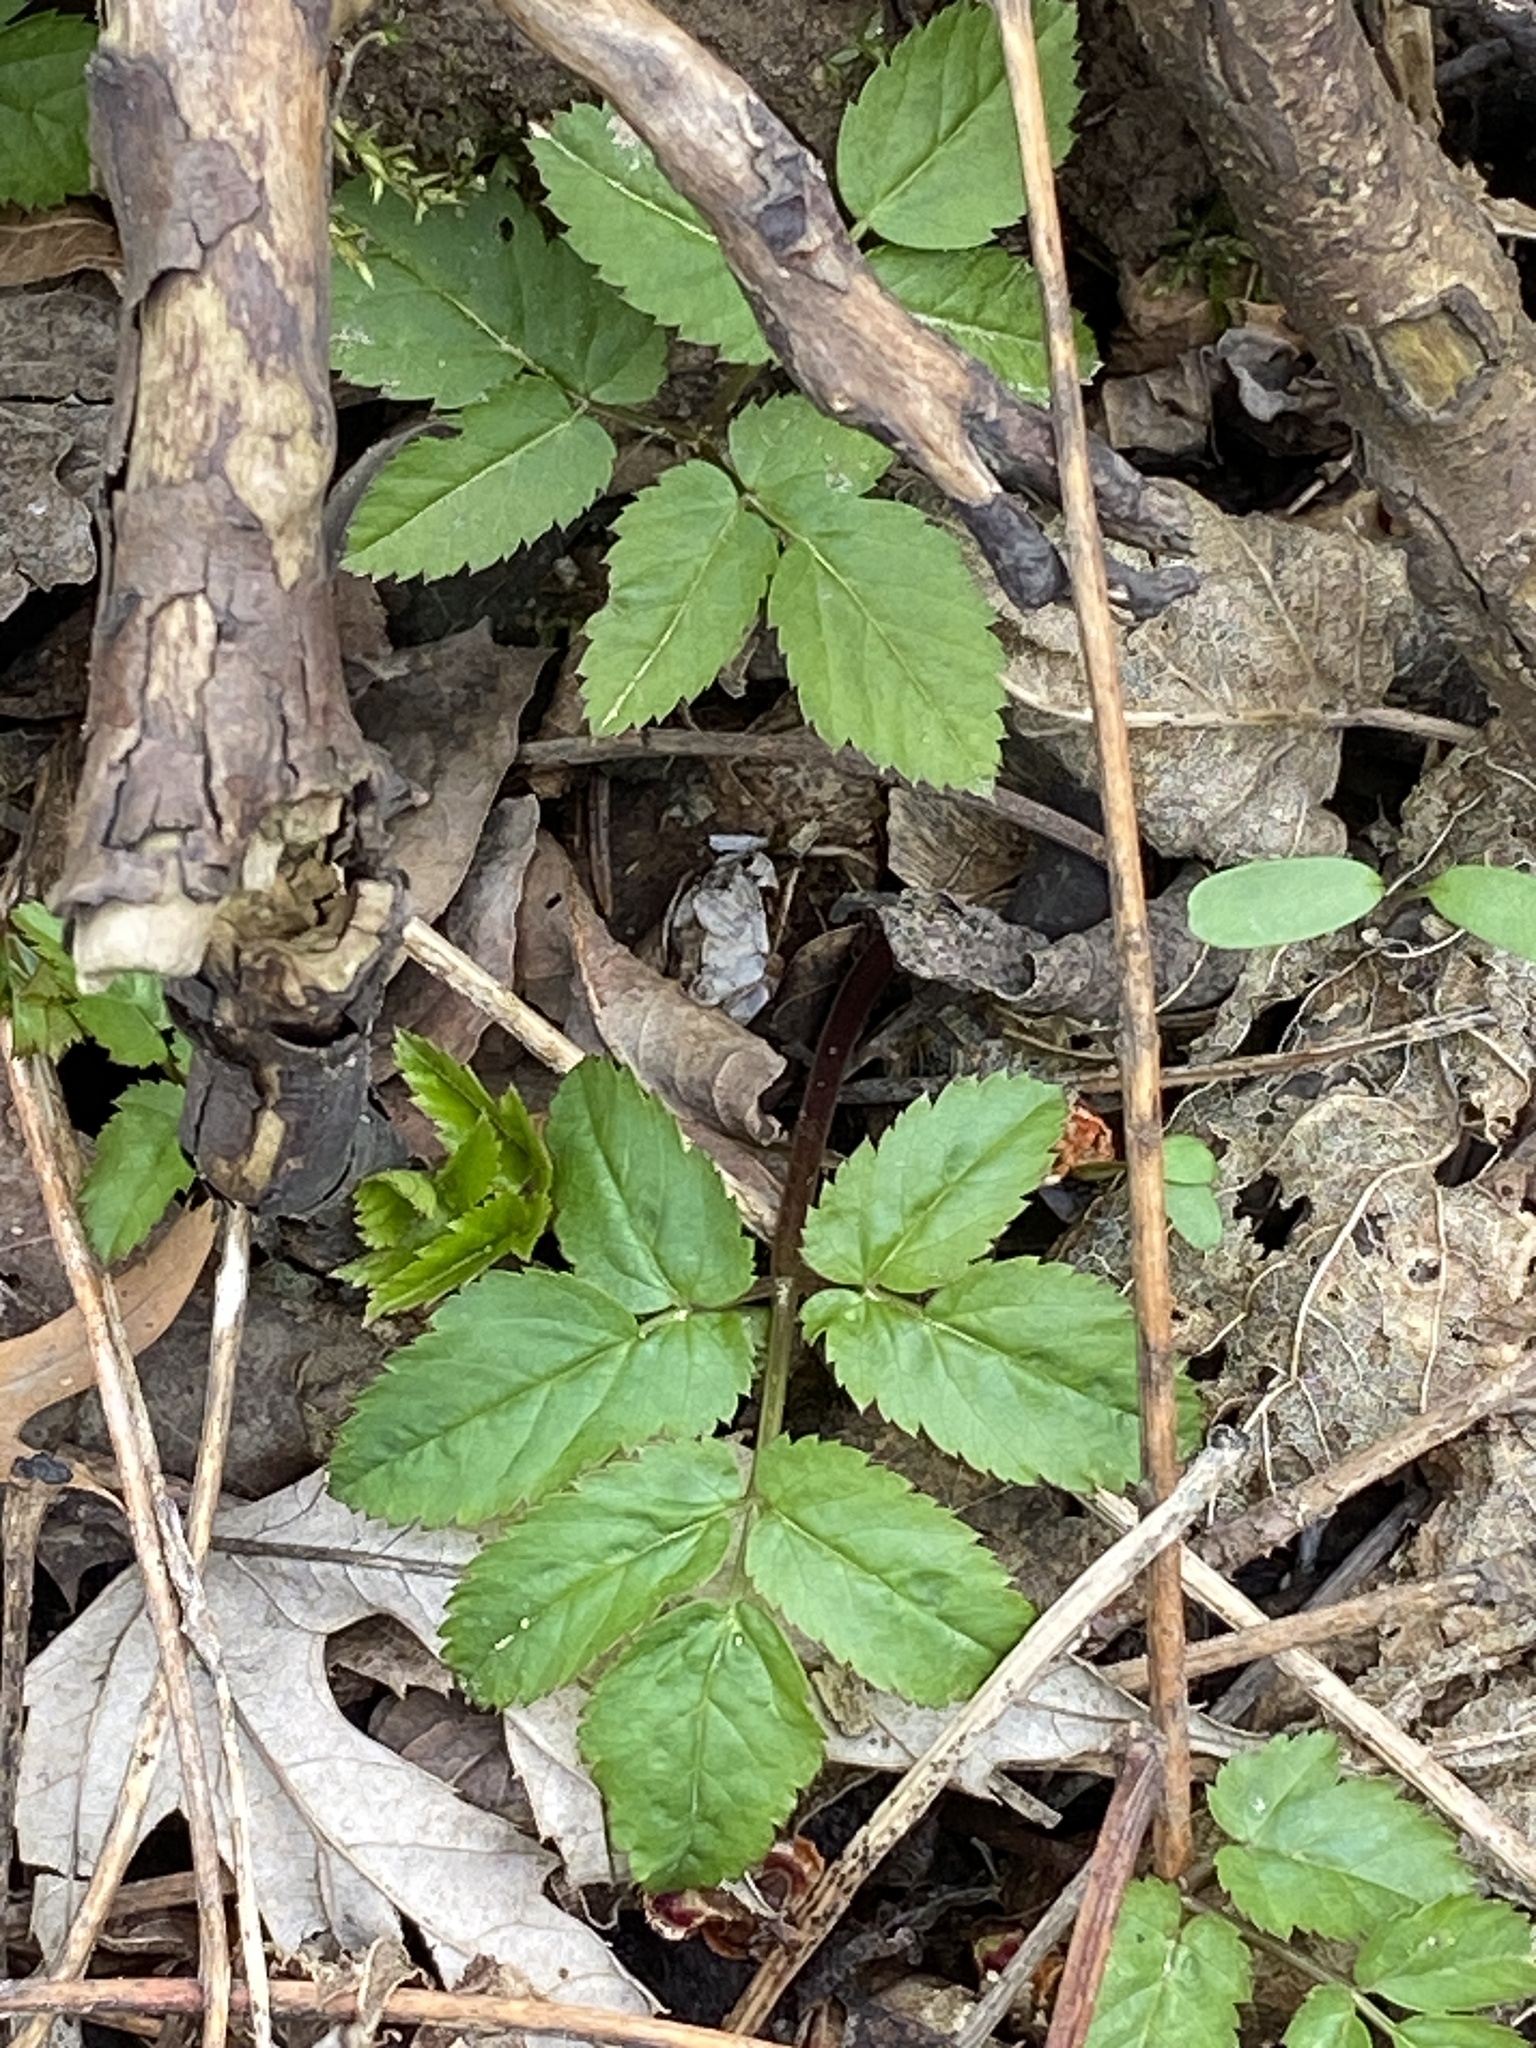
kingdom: Plantae
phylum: Tracheophyta
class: Magnoliopsida
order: Apiales
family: Apiaceae
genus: Aegopodium
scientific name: Aegopodium podagraria
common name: Ground-elder
